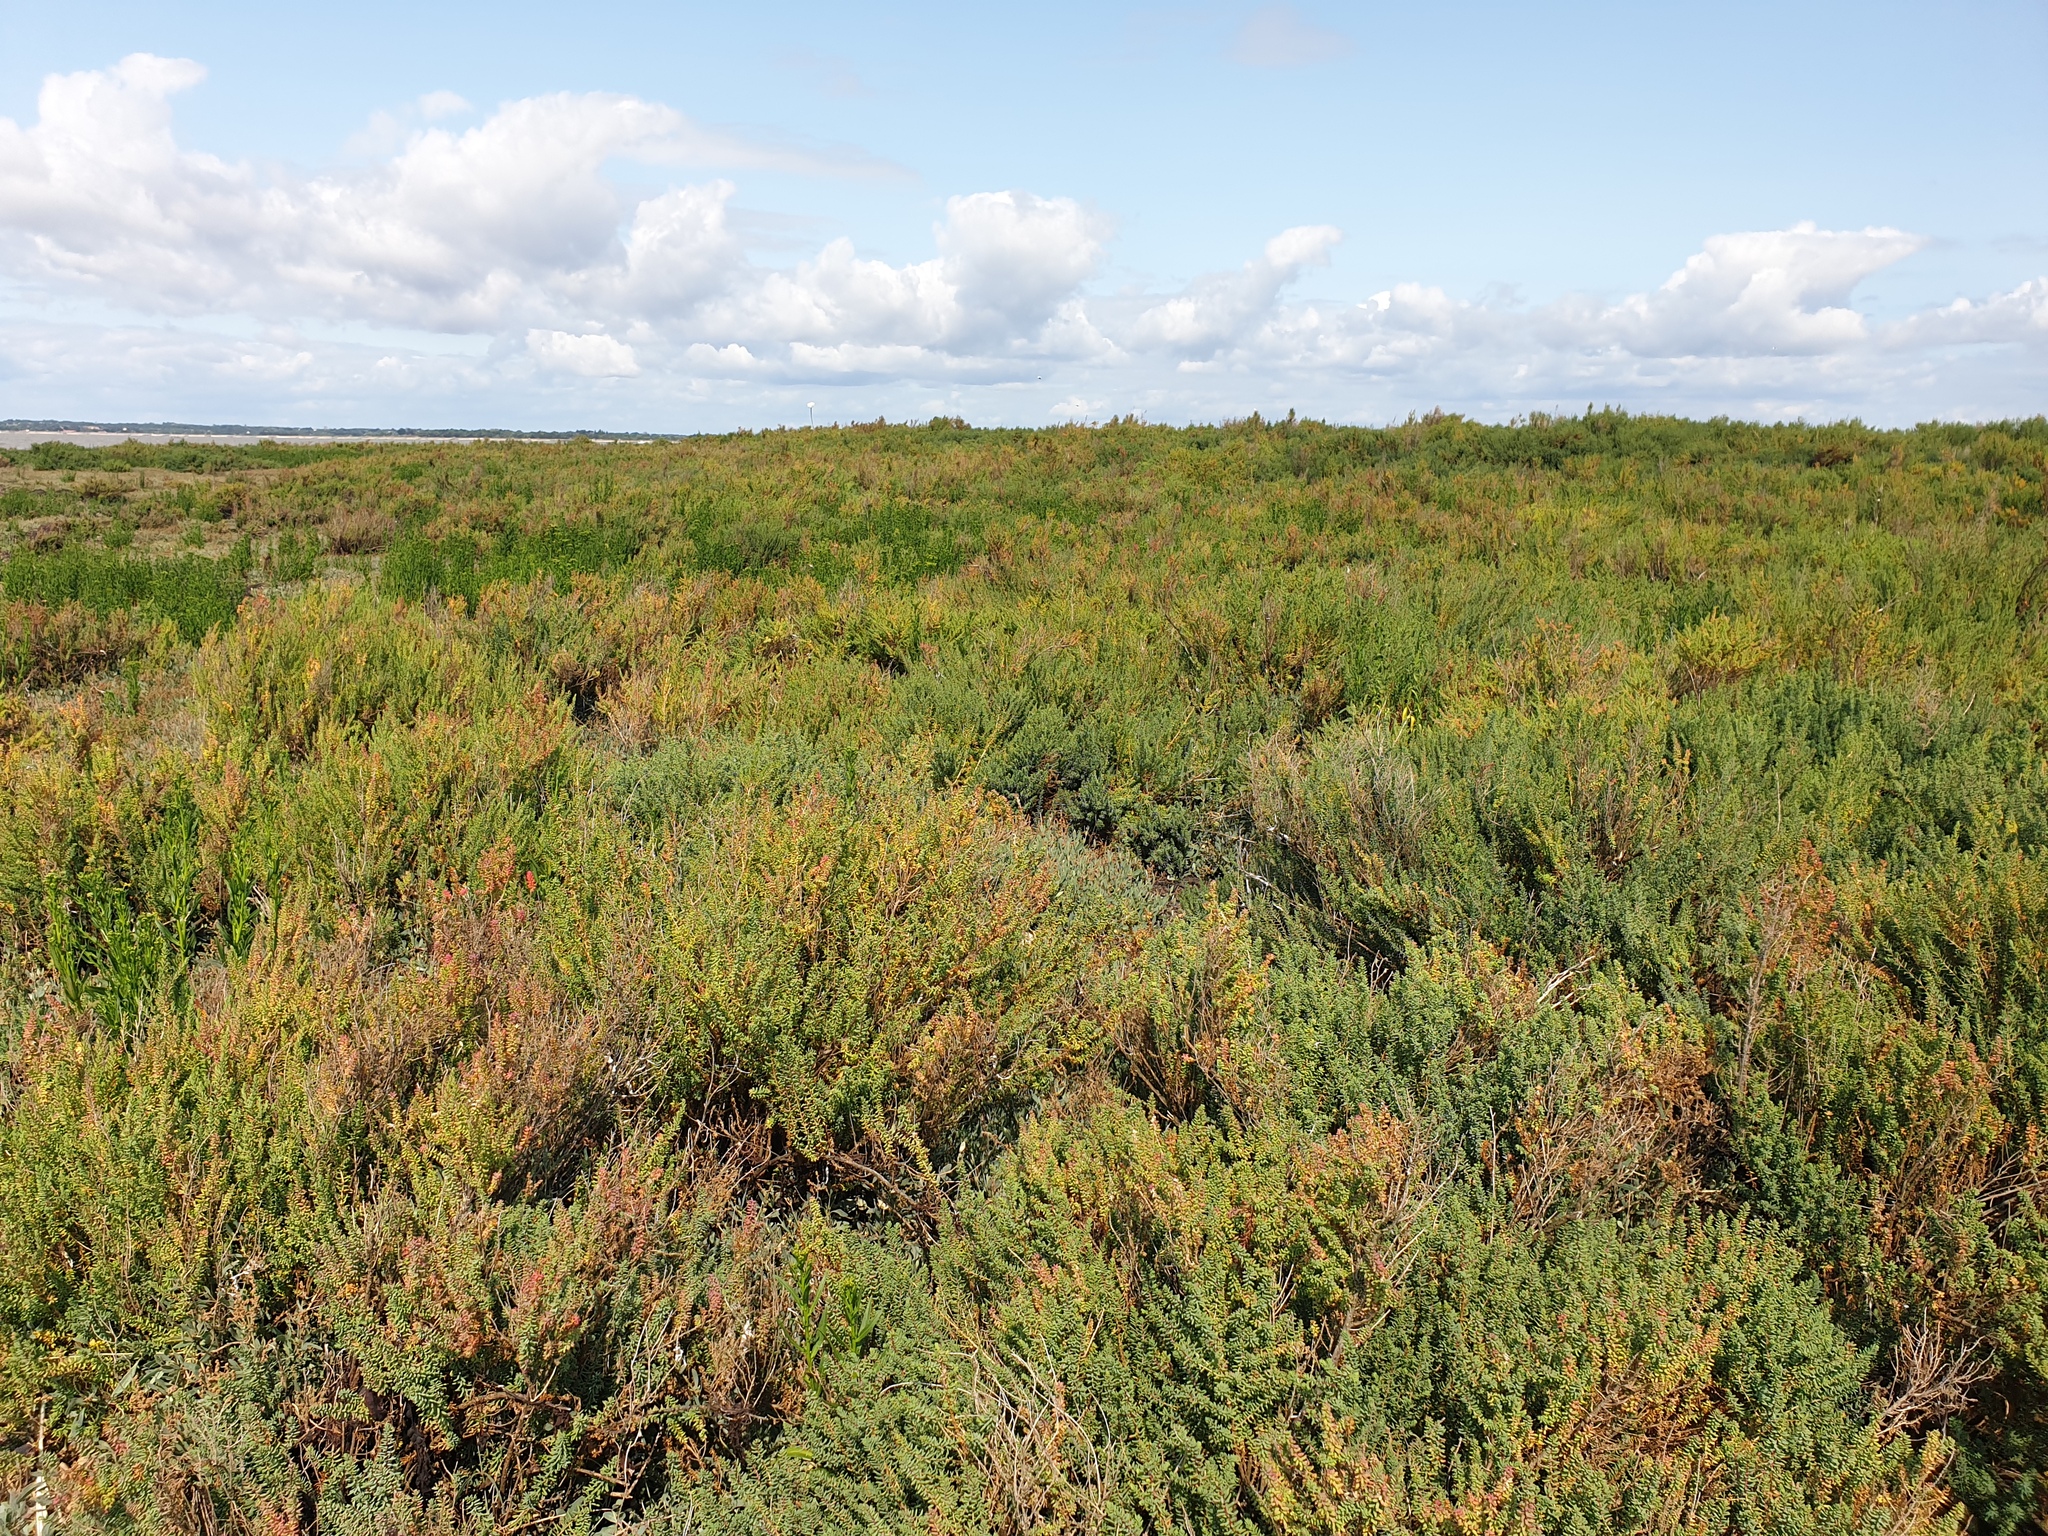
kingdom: Plantae
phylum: Tracheophyta
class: Magnoliopsida
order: Caryophyllales
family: Amaranthaceae
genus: Suaeda
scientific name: Suaeda vera
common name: Shrubby sea-blite
